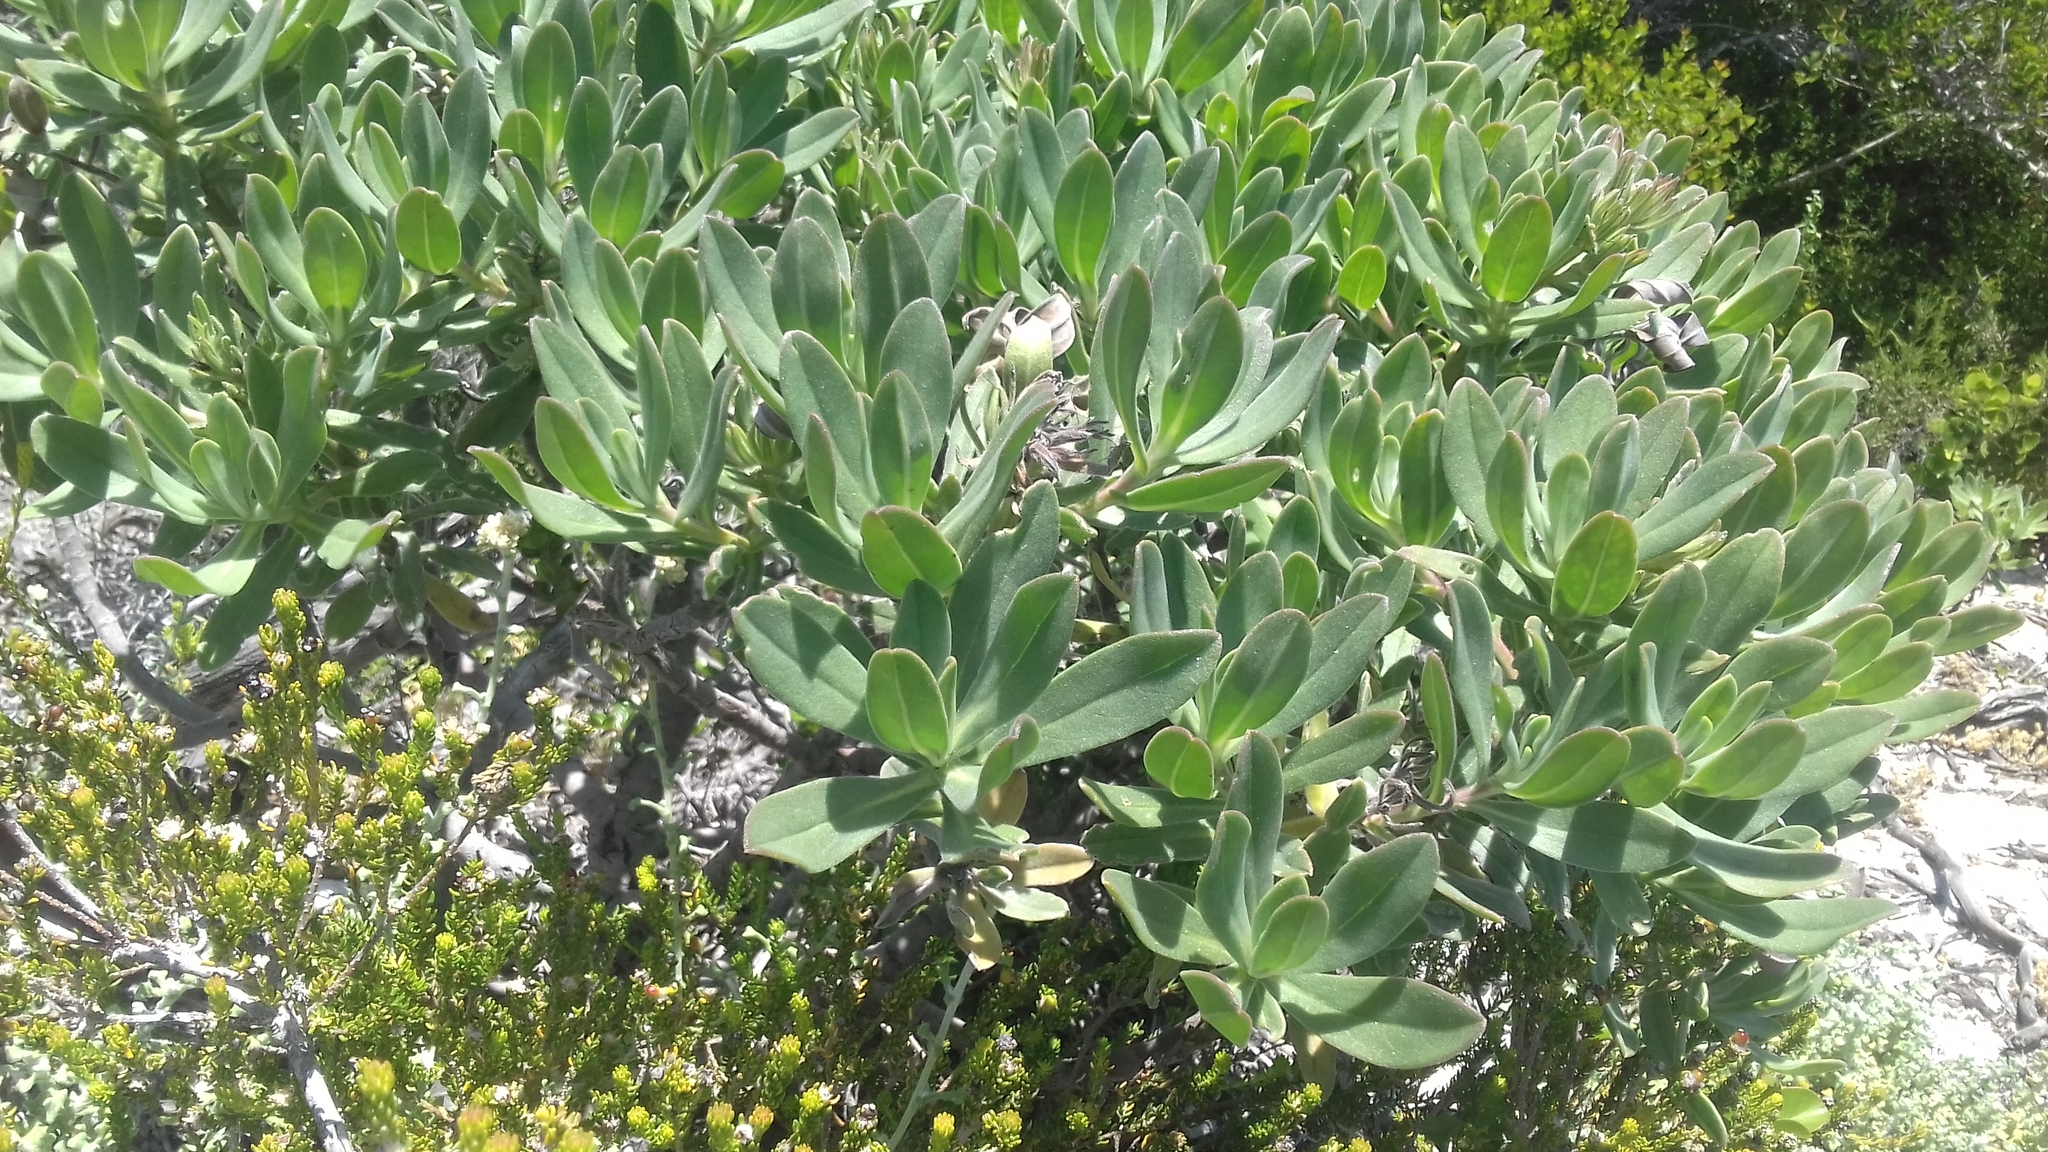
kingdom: Plantae
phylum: Tracheophyta
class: Magnoliopsida
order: Boraginales
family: Boraginaceae
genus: Lobostemon
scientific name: Lobostemon montanus
